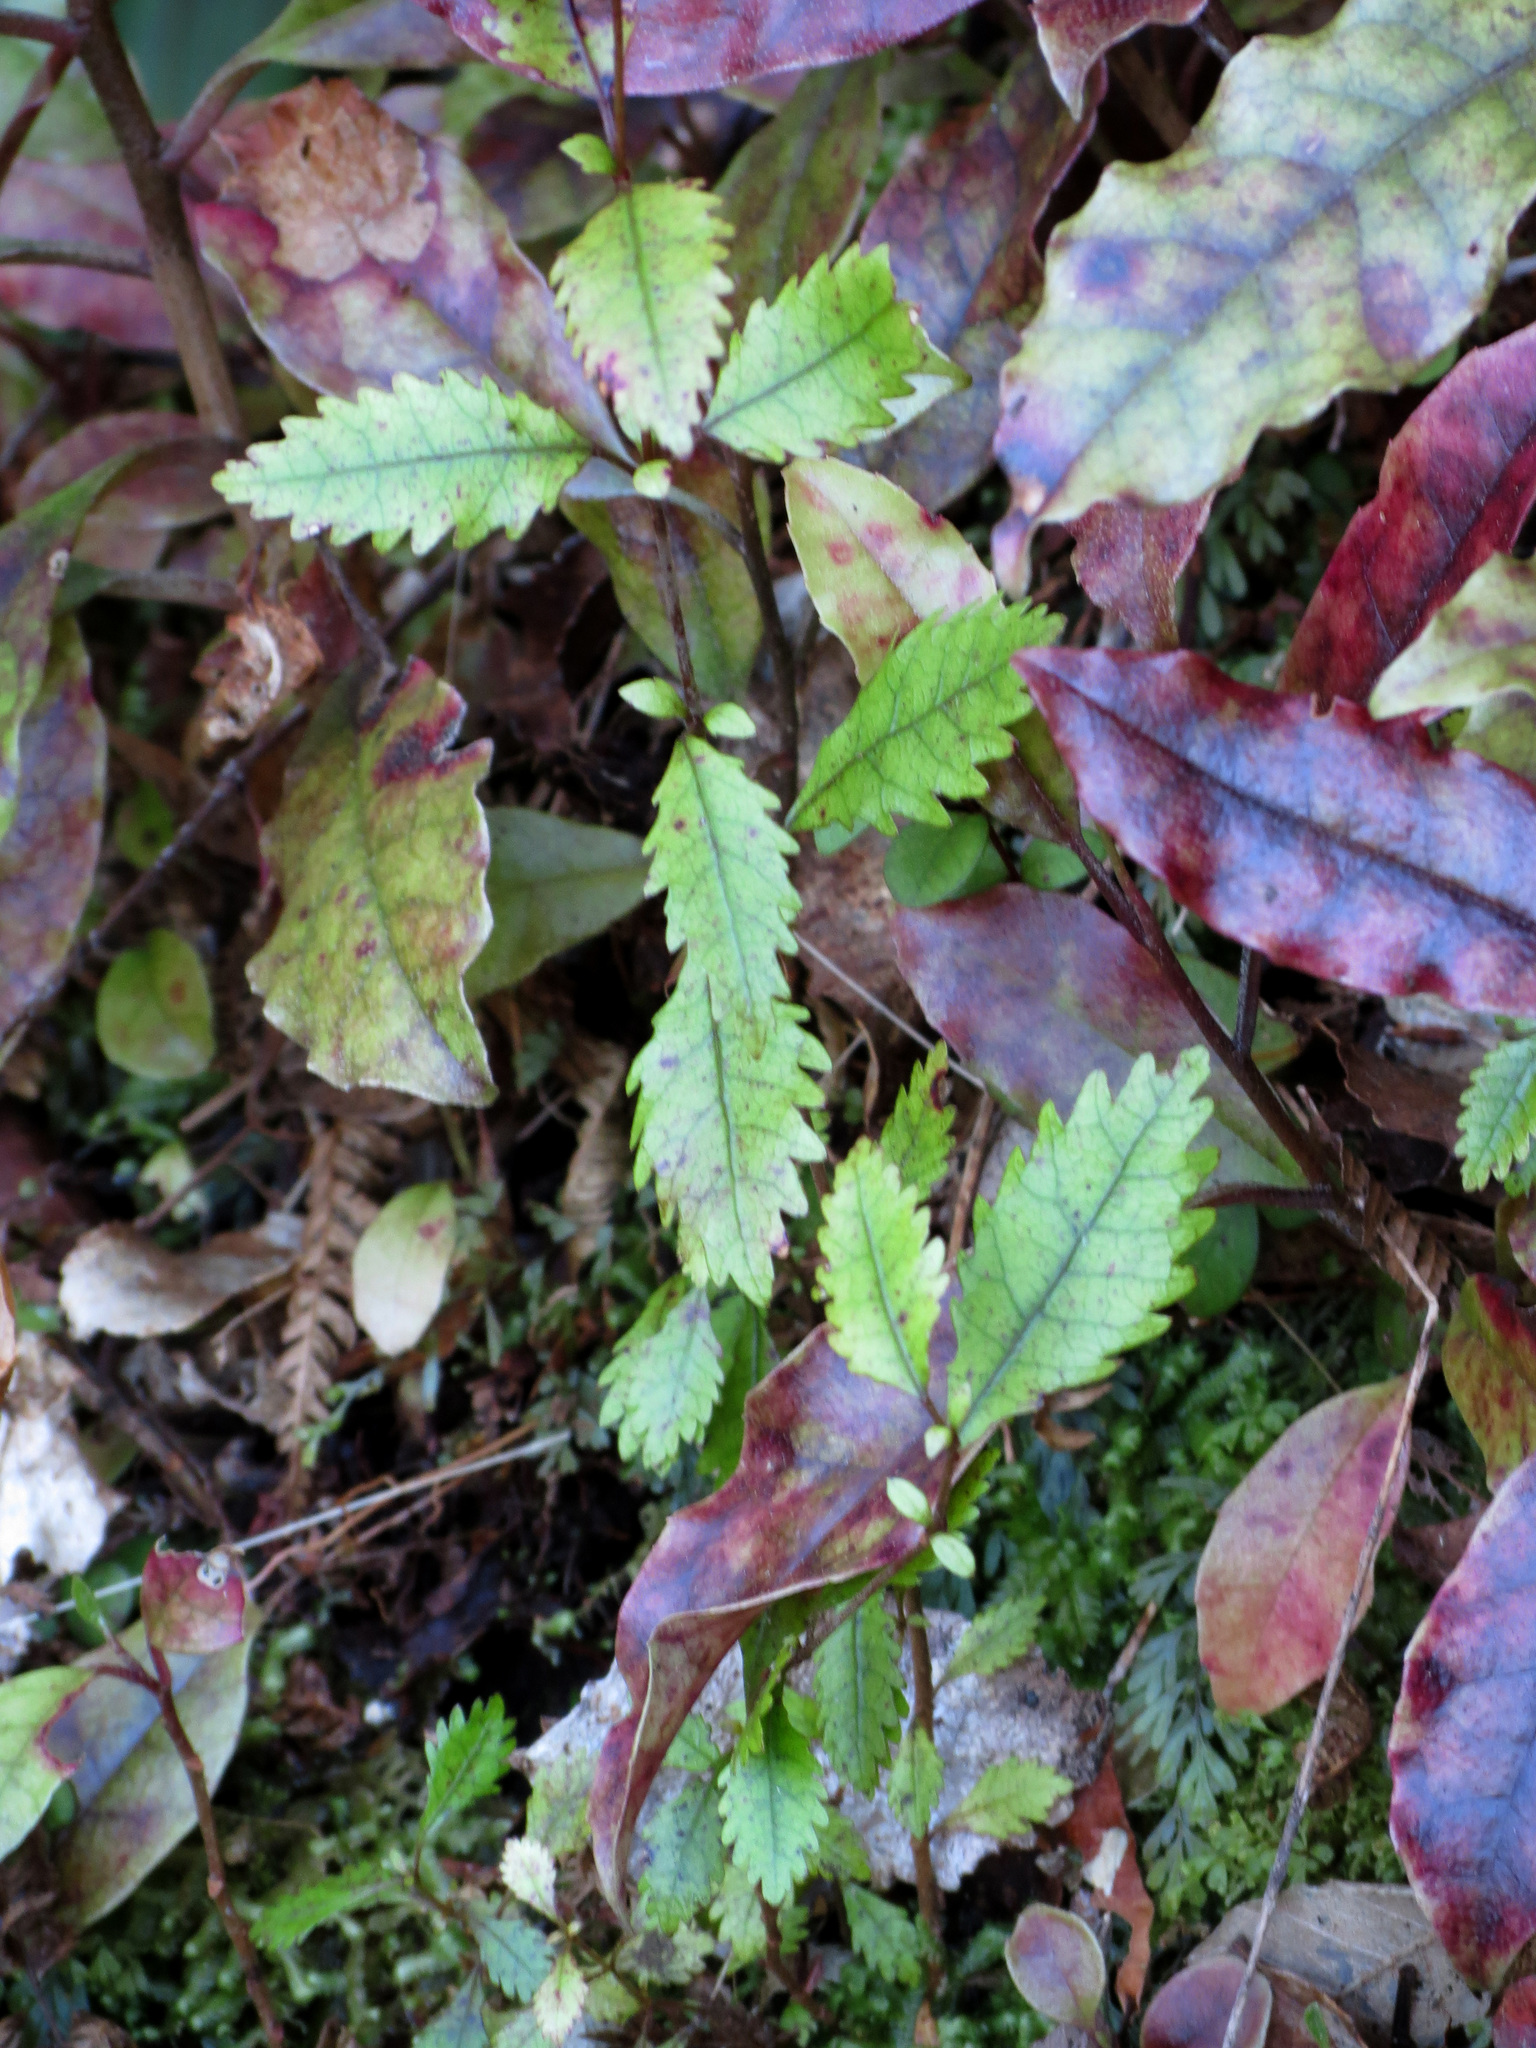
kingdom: Plantae
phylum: Tracheophyta
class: Magnoliopsida
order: Oxalidales
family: Cunoniaceae
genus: Pterophylla
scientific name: Pterophylla racemosa
